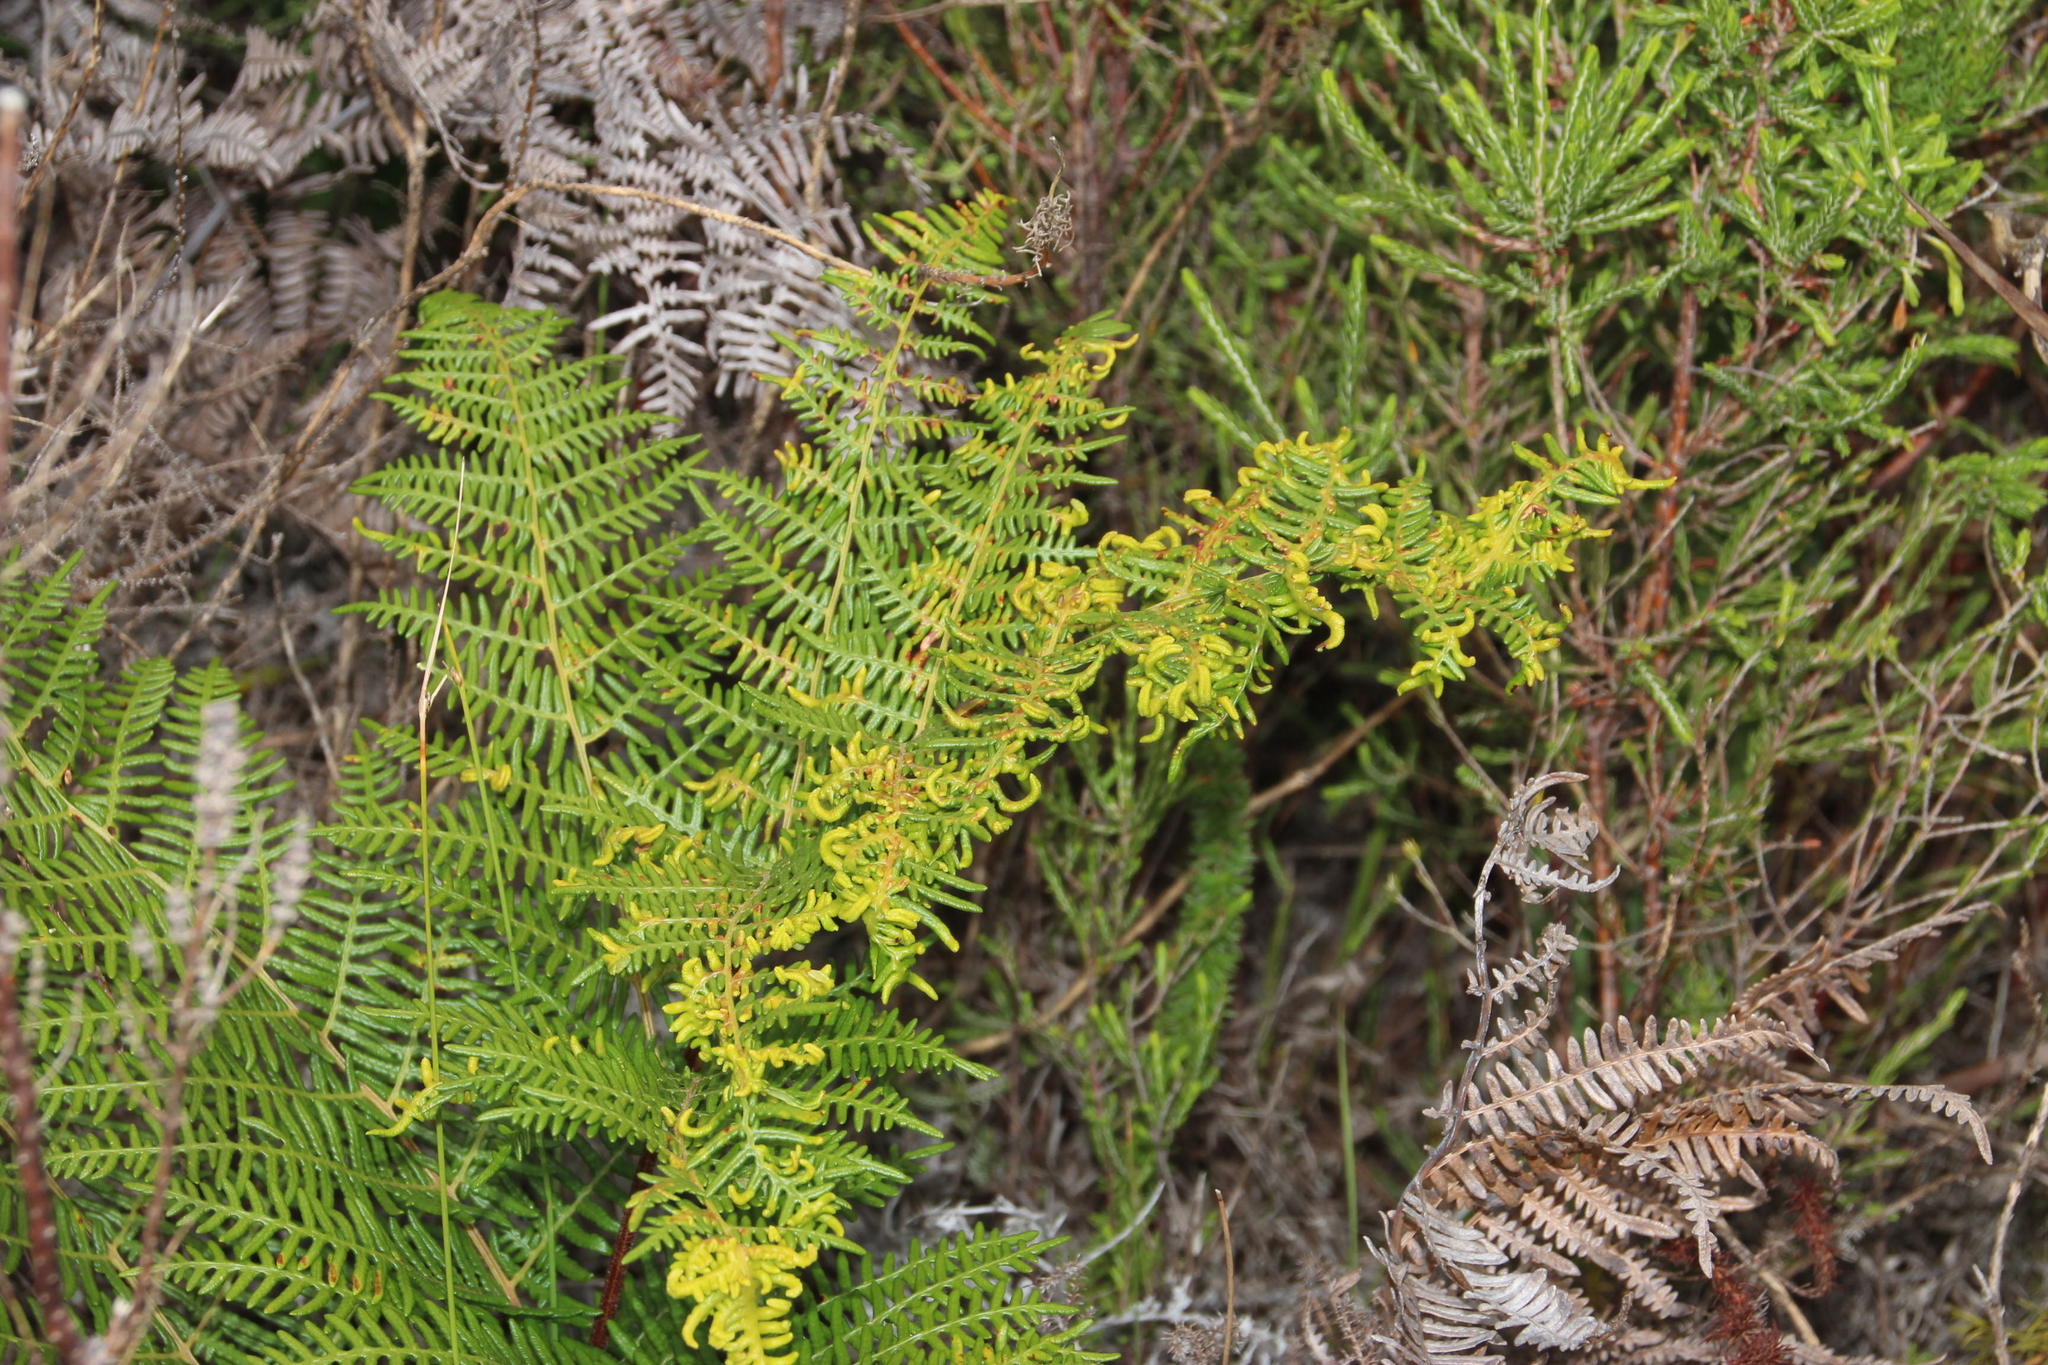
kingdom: Animalia
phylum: Arthropoda
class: Arachnida
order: Trombidiformes
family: Eriophyidae
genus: Eriophyes
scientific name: Eriophyes
